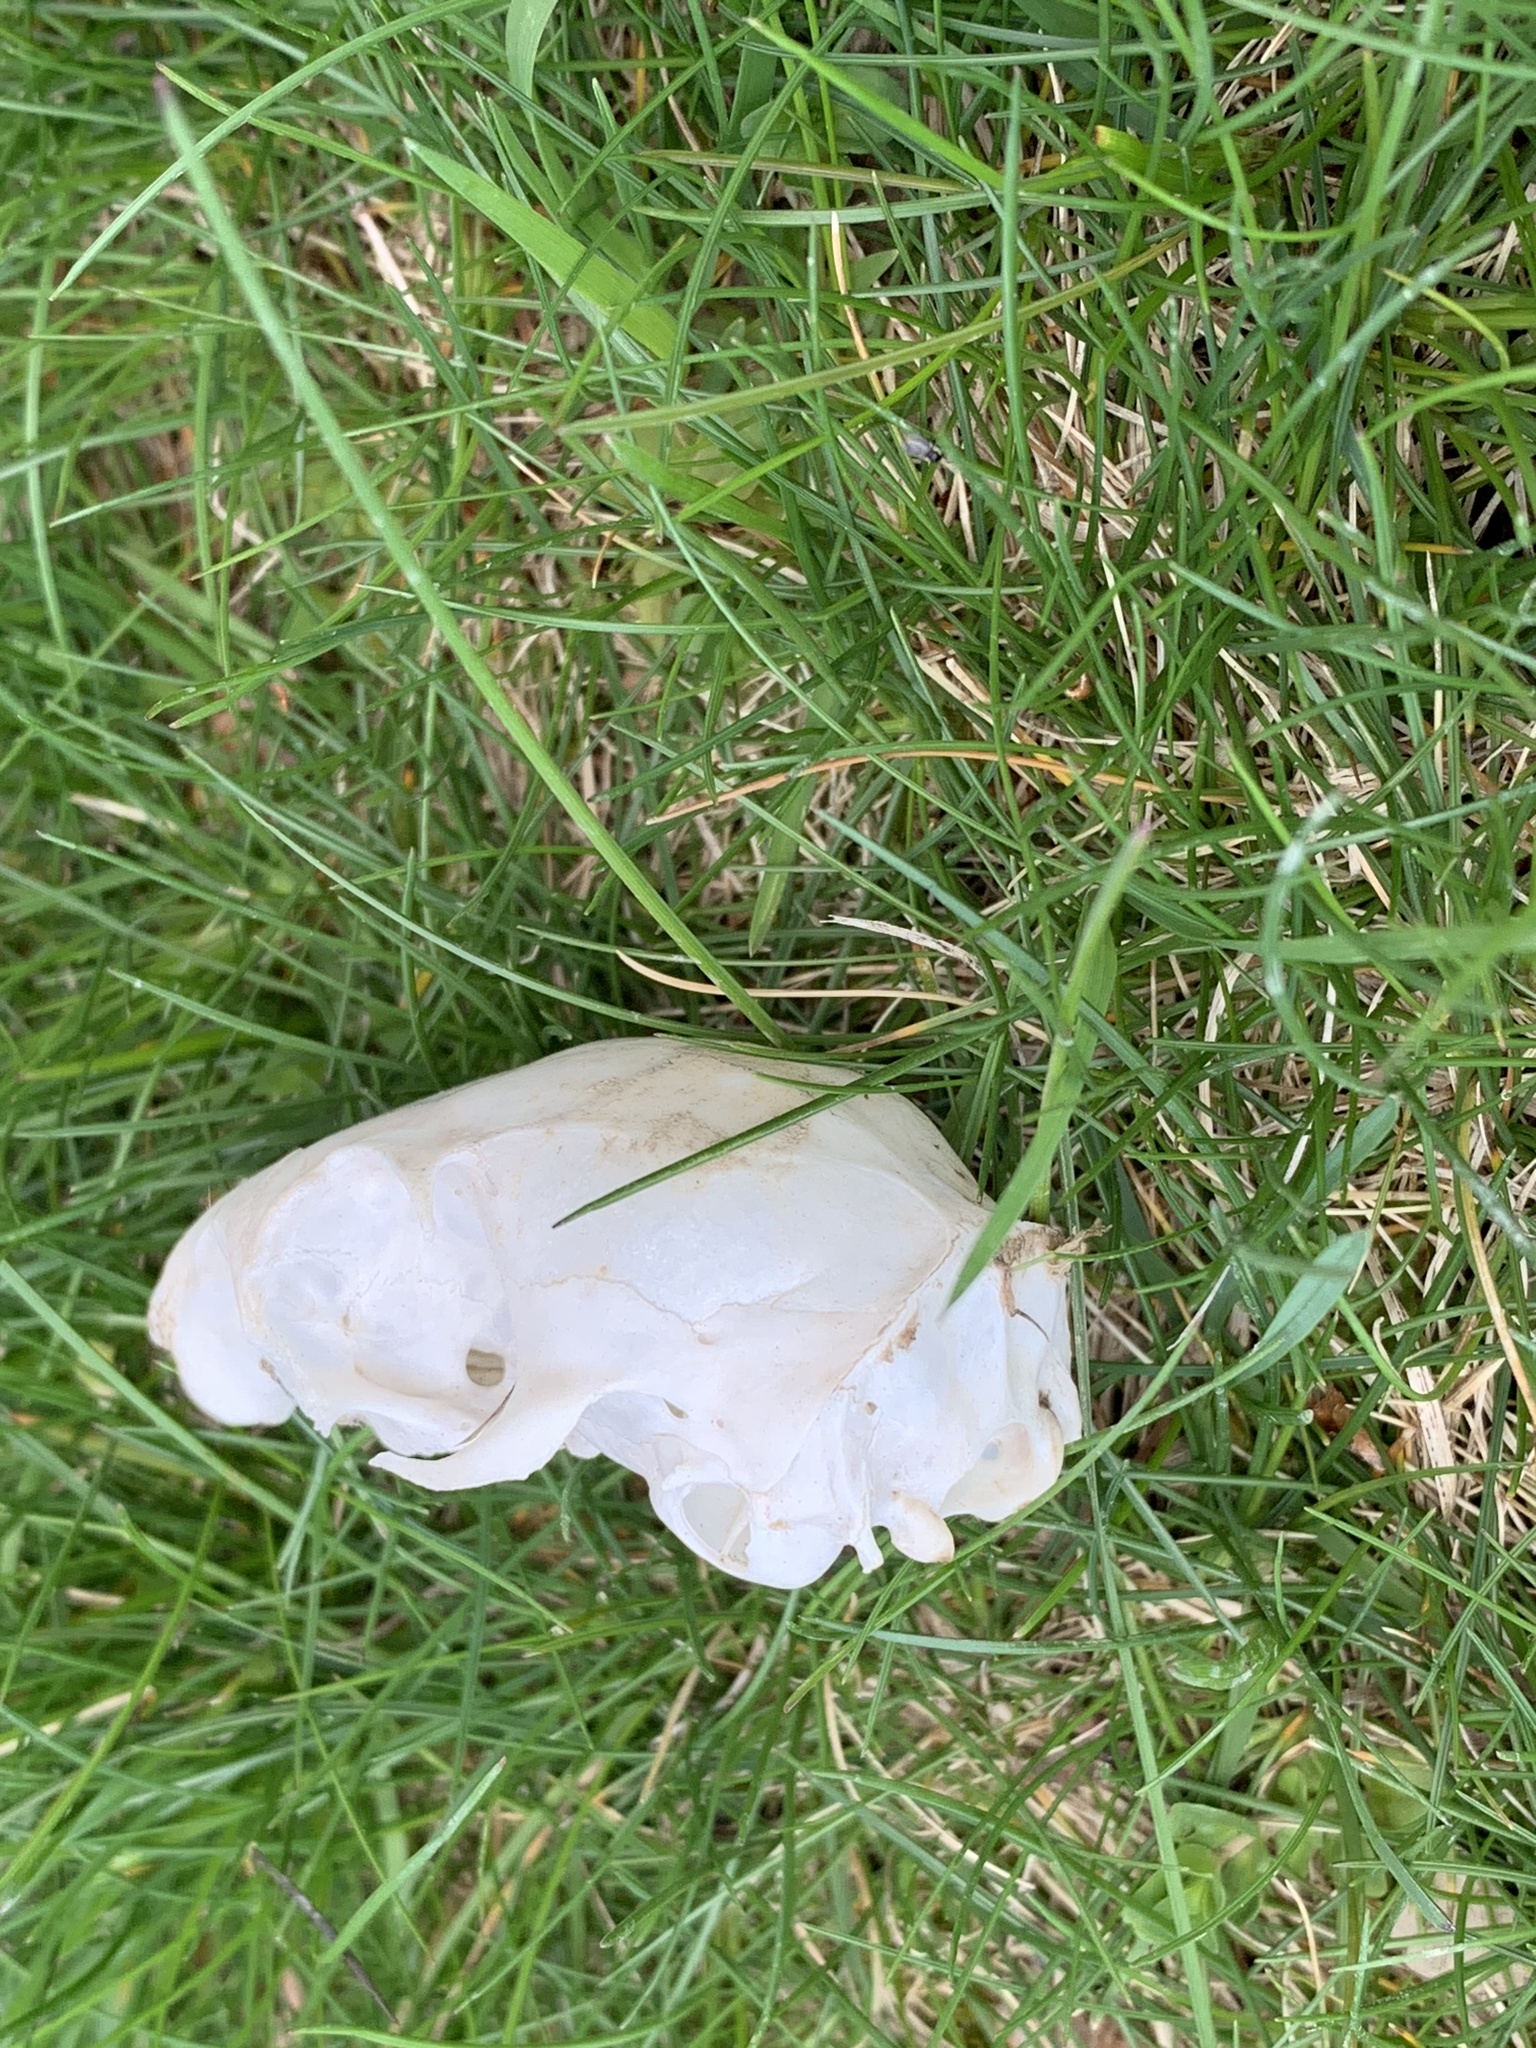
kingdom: Animalia
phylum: Chordata
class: Mammalia
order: Rodentia
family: Sciuridae
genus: Sciurus
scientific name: Sciurus carolinensis
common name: Eastern gray squirrel
